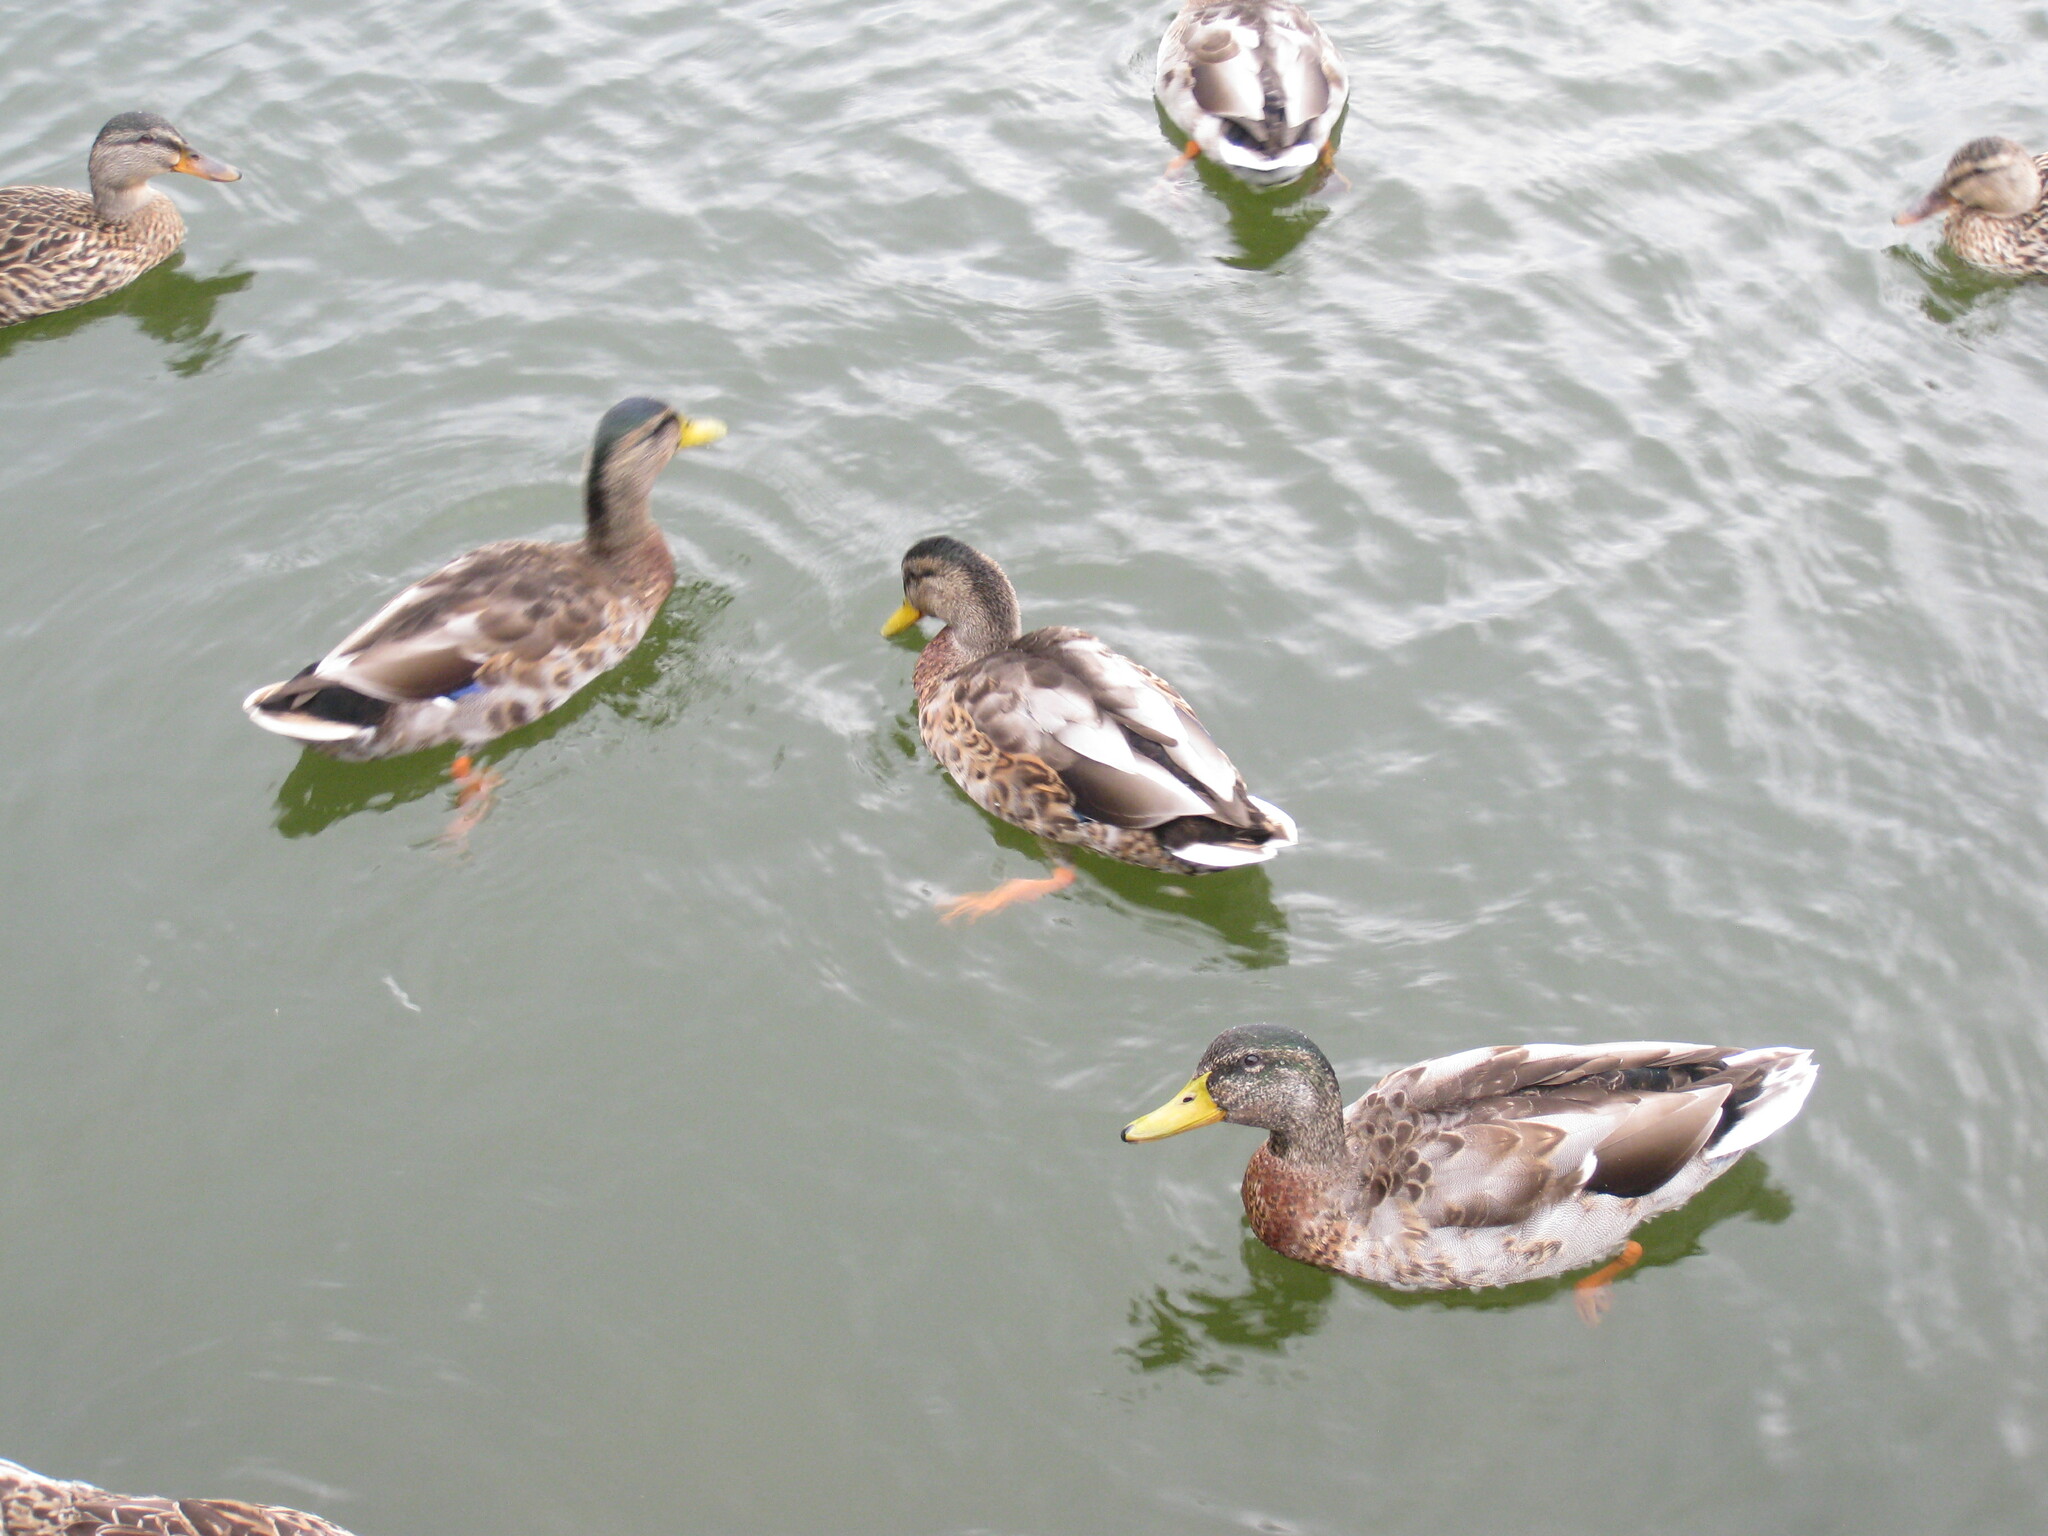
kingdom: Animalia
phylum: Chordata
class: Aves
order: Anseriformes
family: Anatidae
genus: Anas
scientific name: Anas platyrhynchos
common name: Mallard
